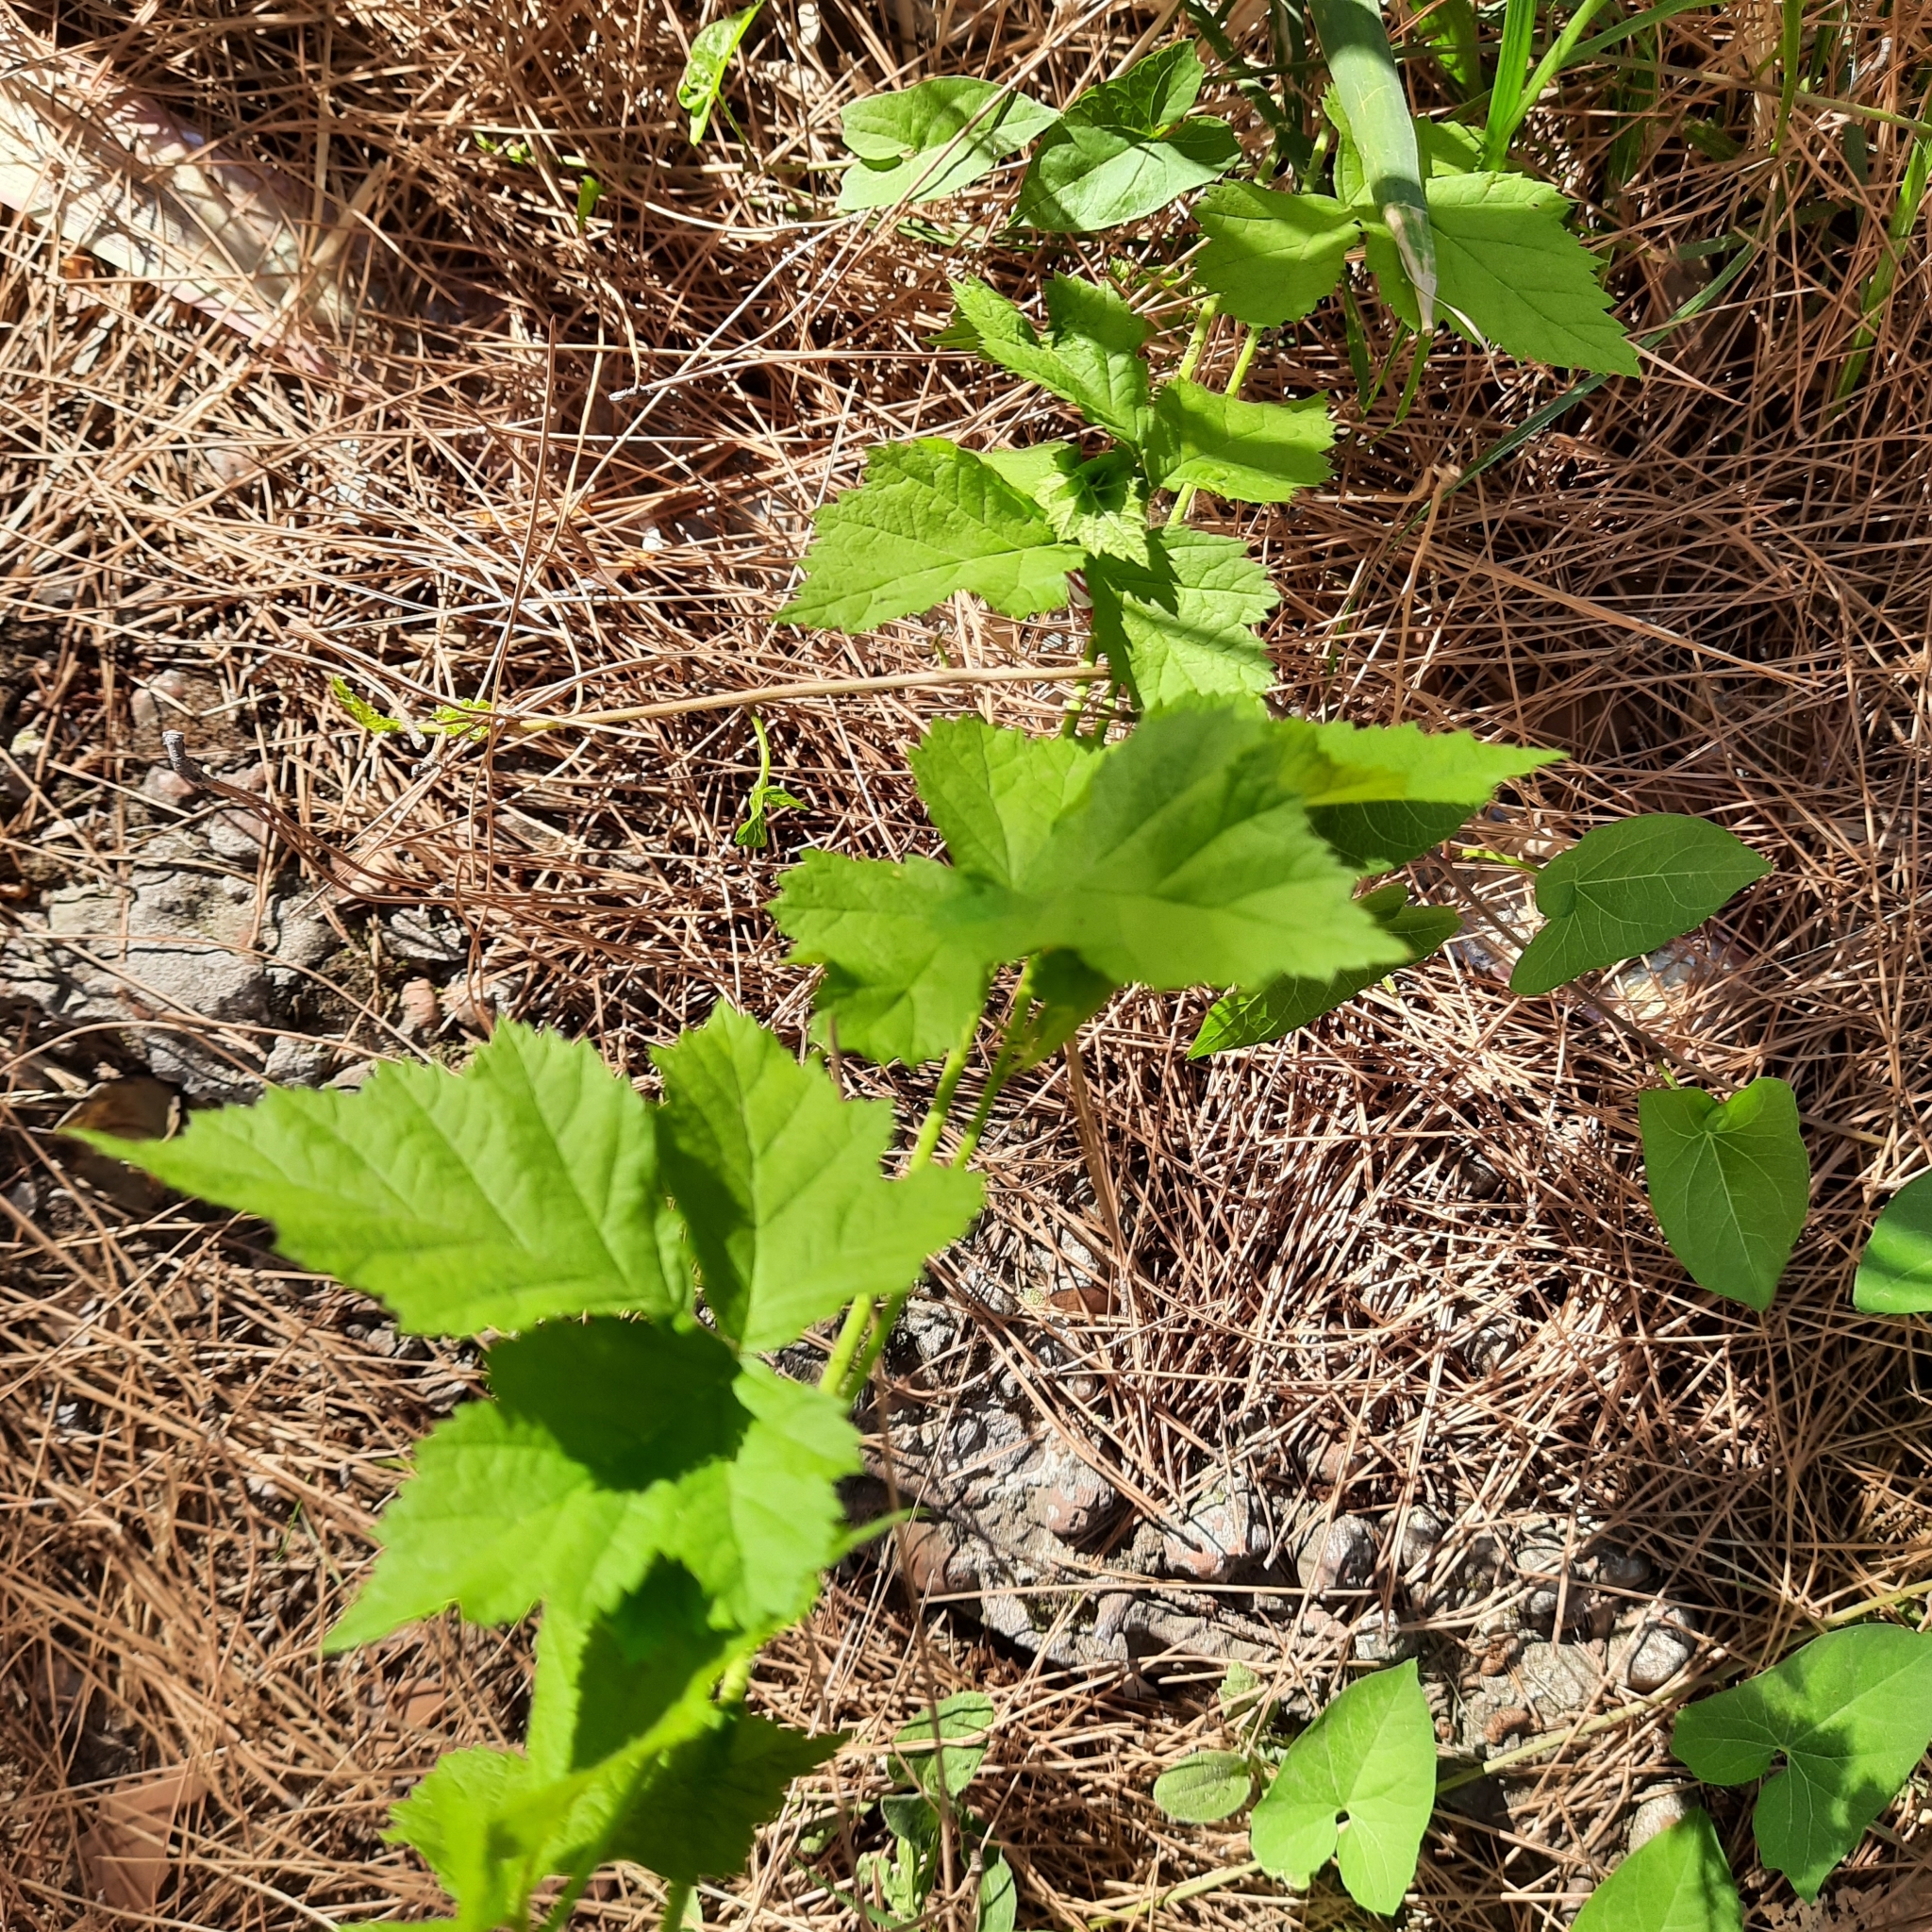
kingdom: Plantae
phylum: Tracheophyta
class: Magnoliopsida
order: Rosales
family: Cannabaceae
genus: Humulus
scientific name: Humulus lupulus
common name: Hop
